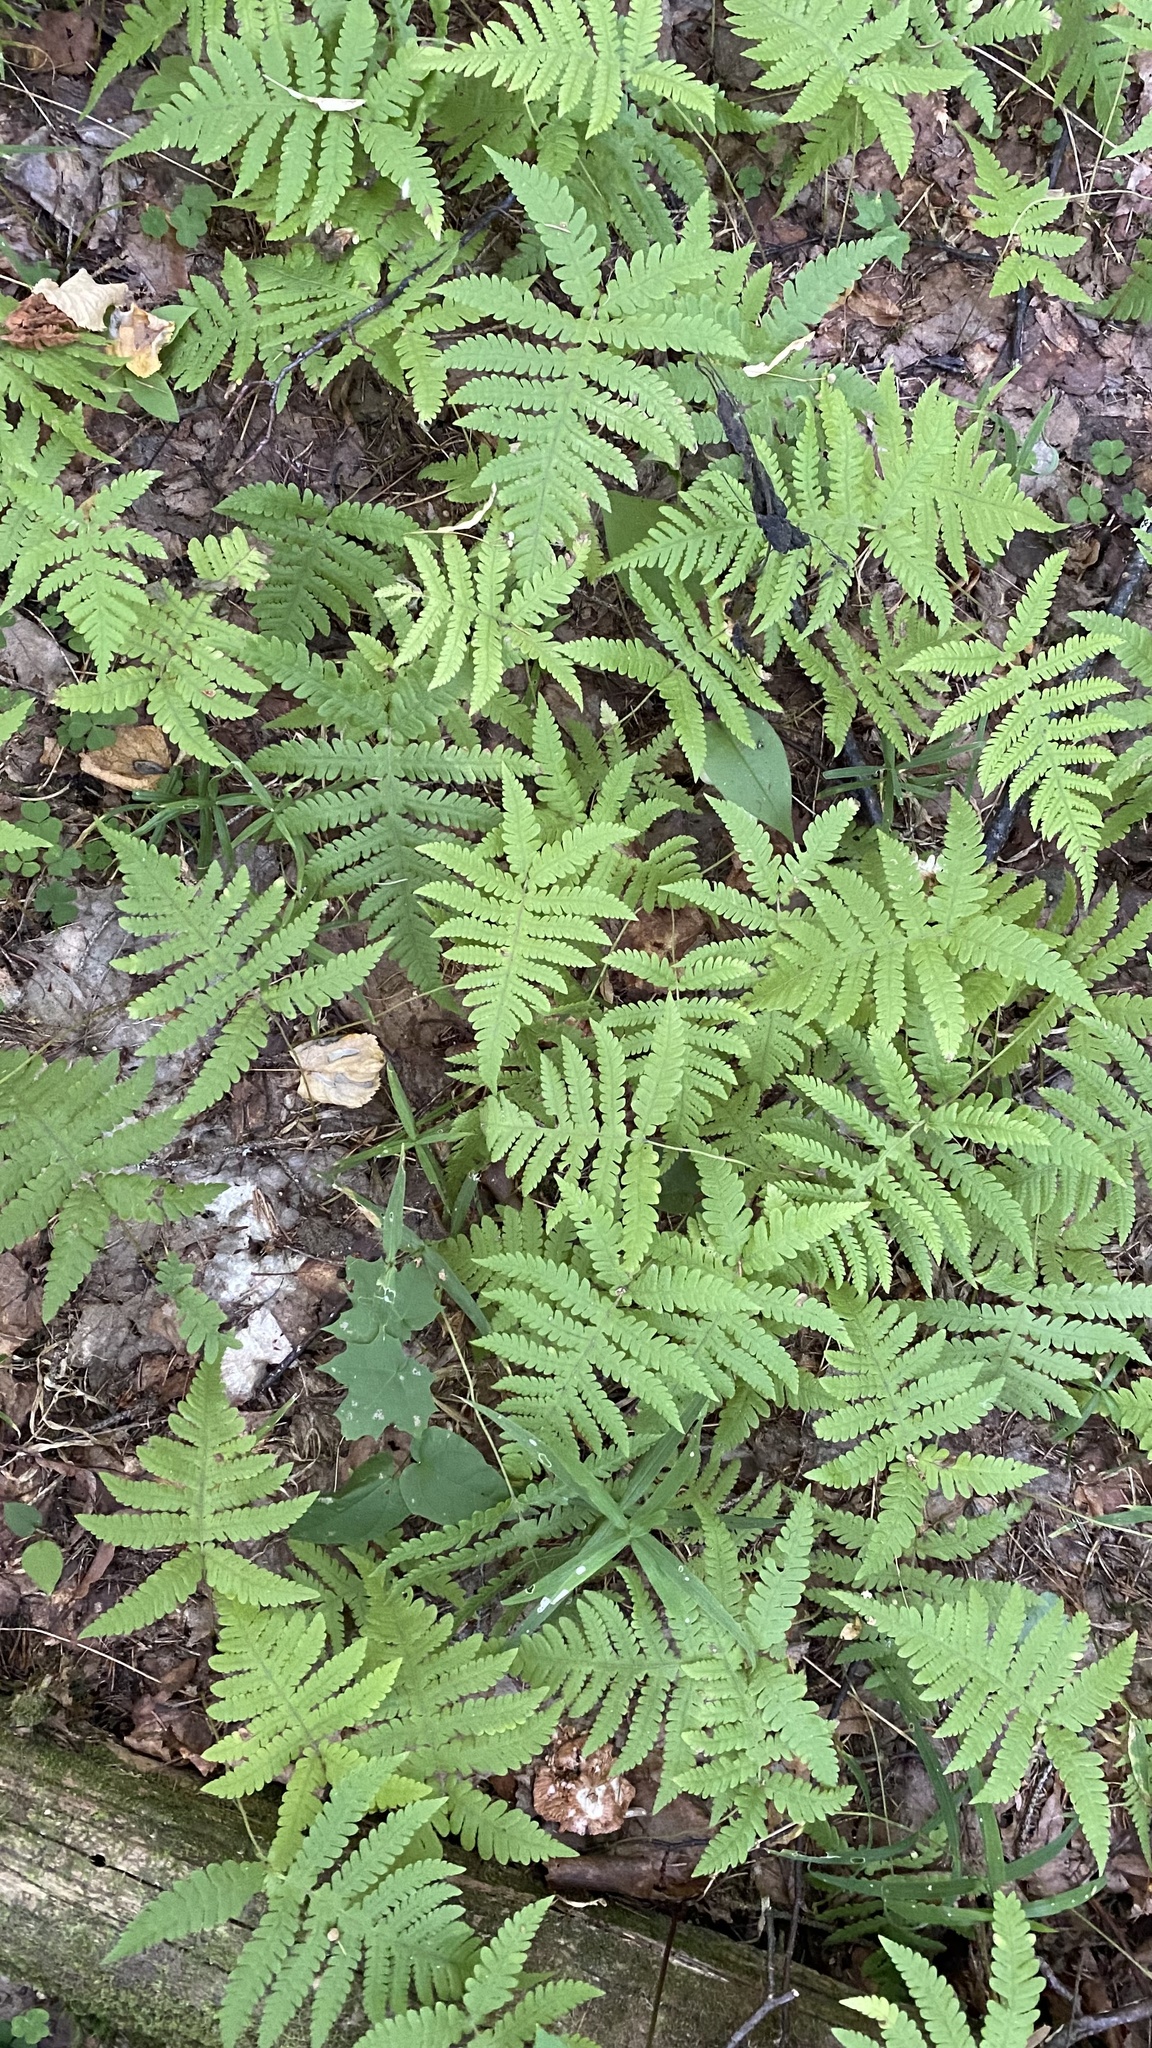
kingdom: Plantae
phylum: Tracheophyta
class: Polypodiopsida
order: Polypodiales
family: Thelypteridaceae
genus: Phegopteris
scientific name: Phegopteris connectilis
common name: Beech fern
